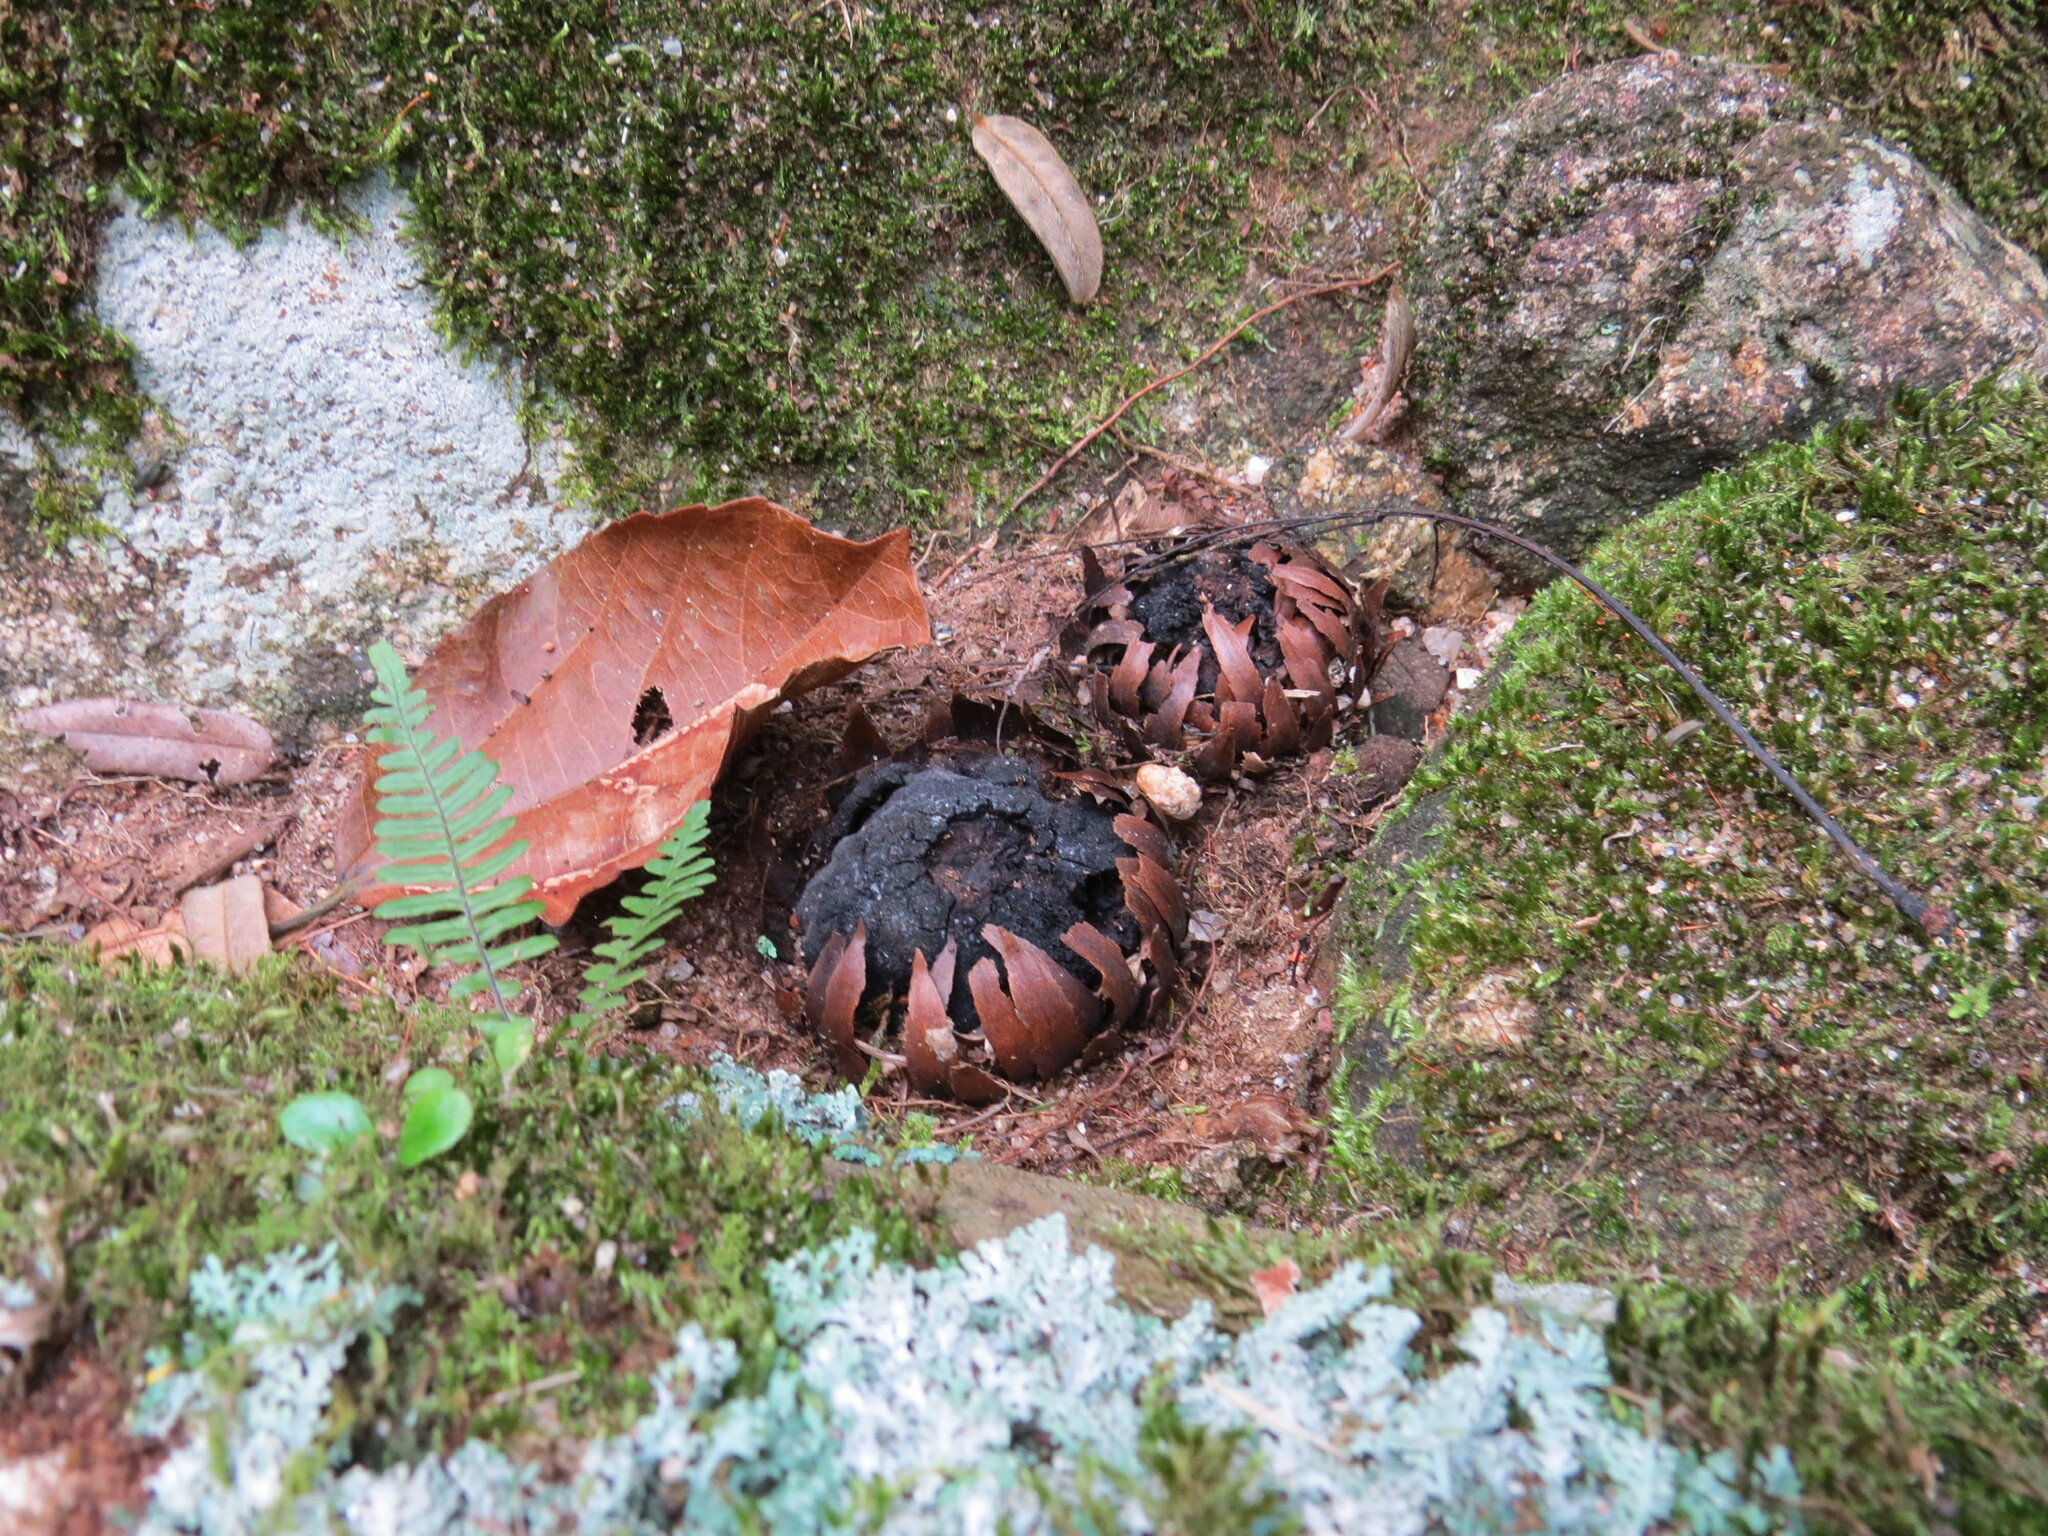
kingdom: Plantae
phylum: Tracheophyta
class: Magnoliopsida
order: Santalales
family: Balanophoraceae
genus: Langsdorffia
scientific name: Langsdorffia hypogaea
